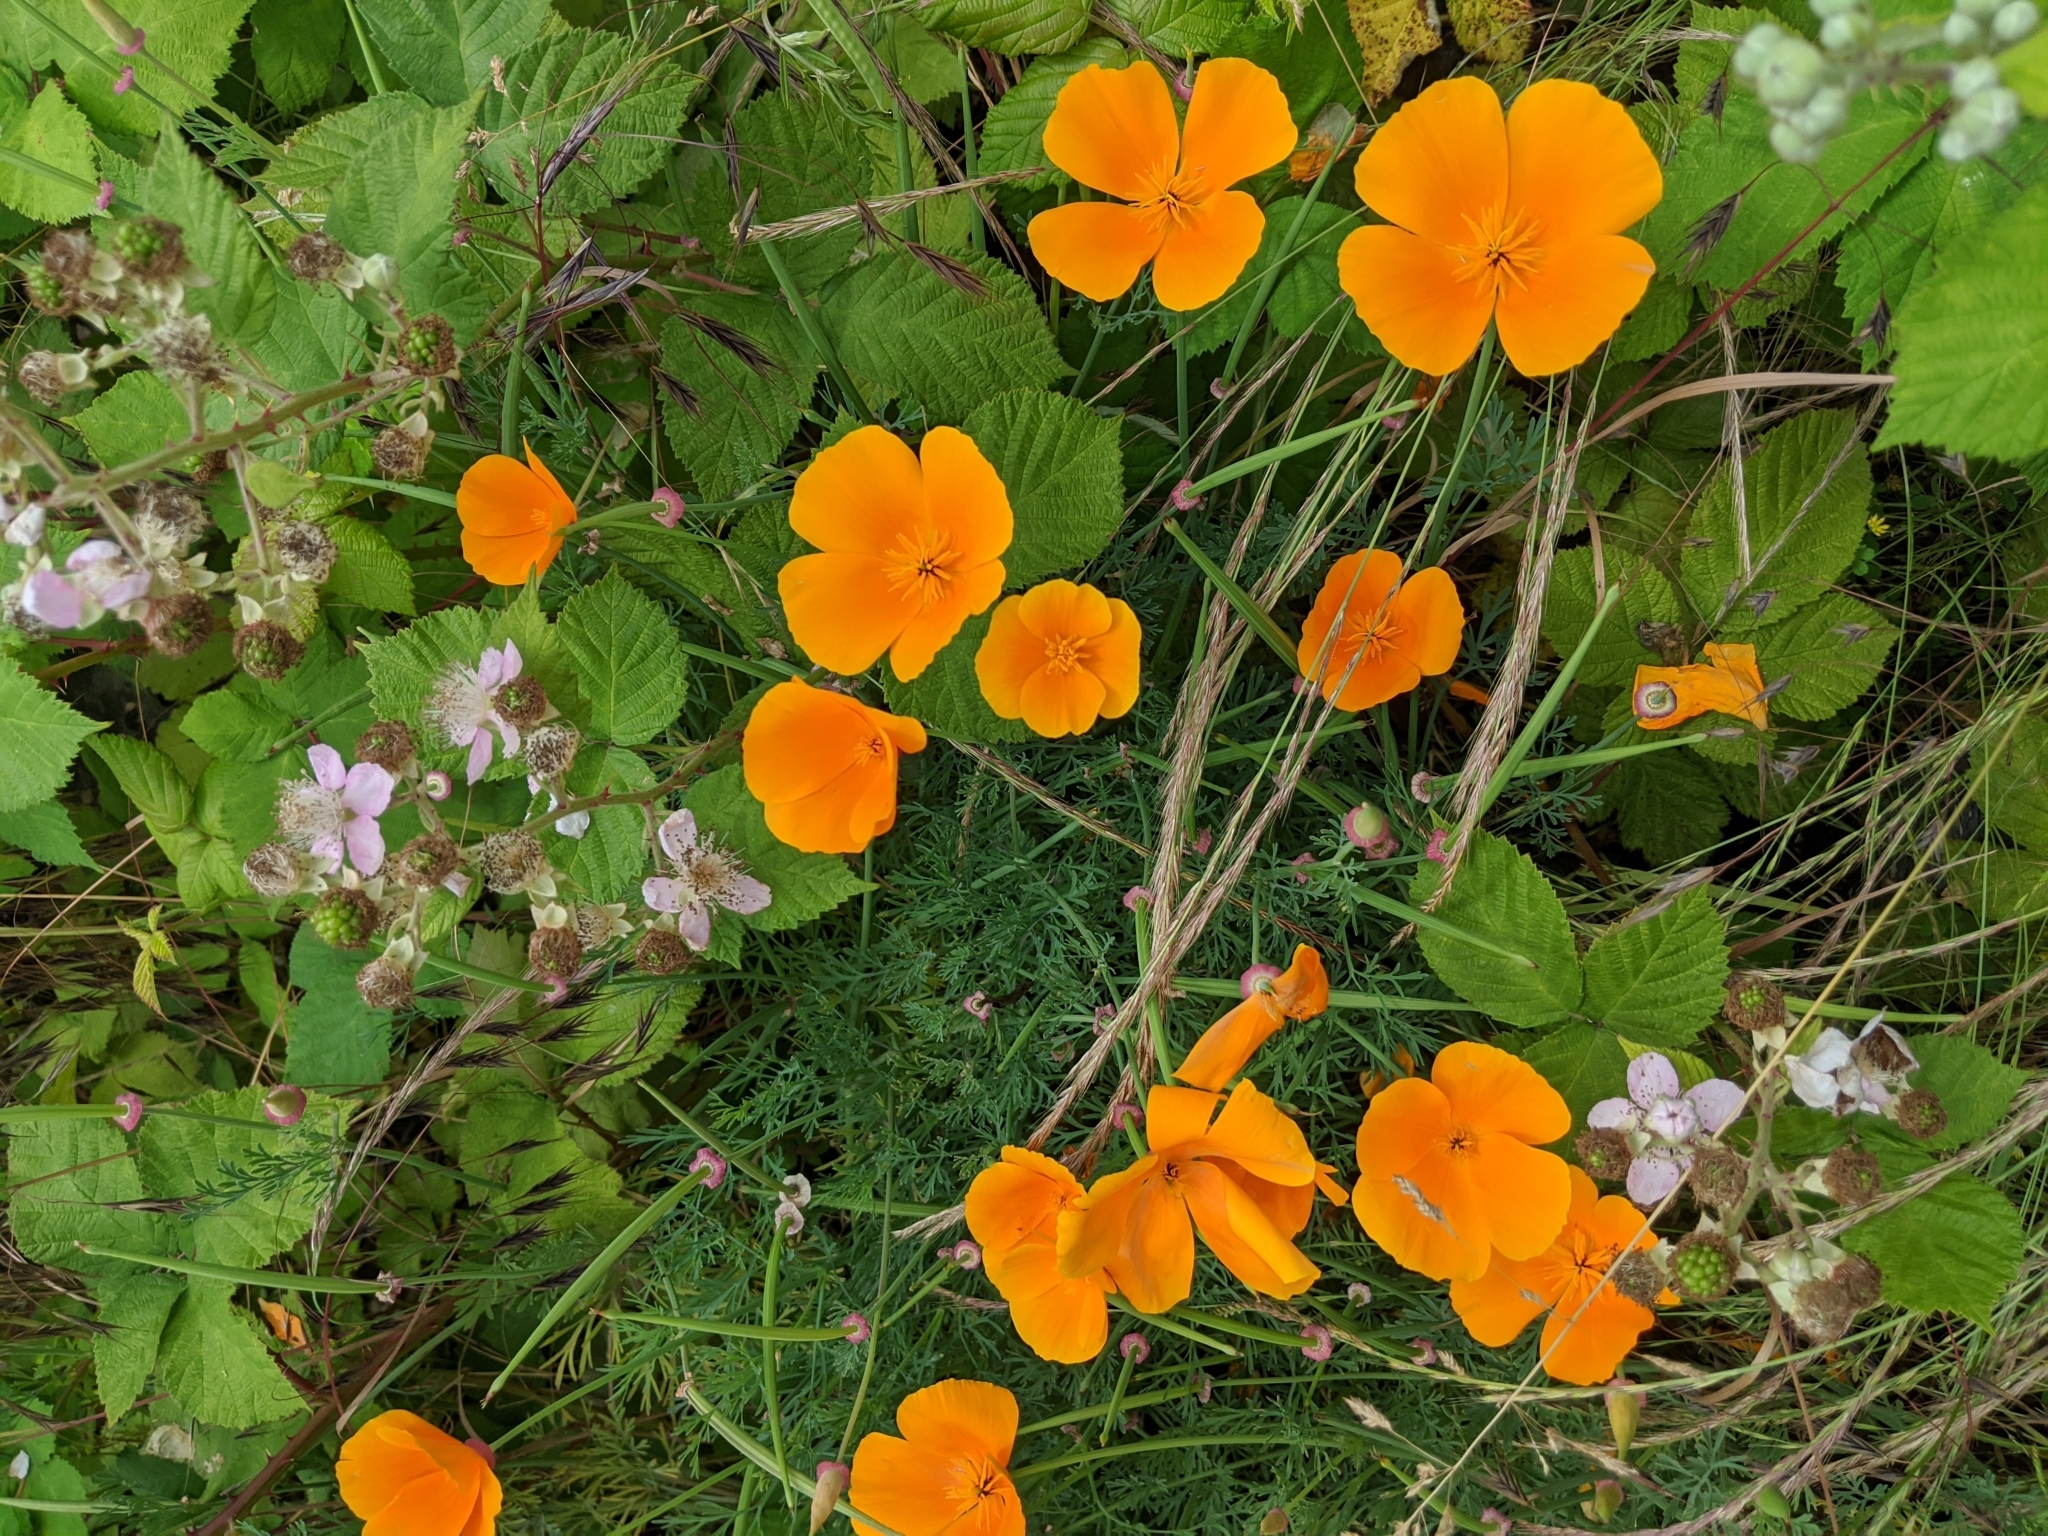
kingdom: Plantae
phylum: Tracheophyta
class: Magnoliopsida
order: Ranunculales
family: Papaveraceae
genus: Eschscholzia
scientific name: Eschscholzia californica
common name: California poppy
